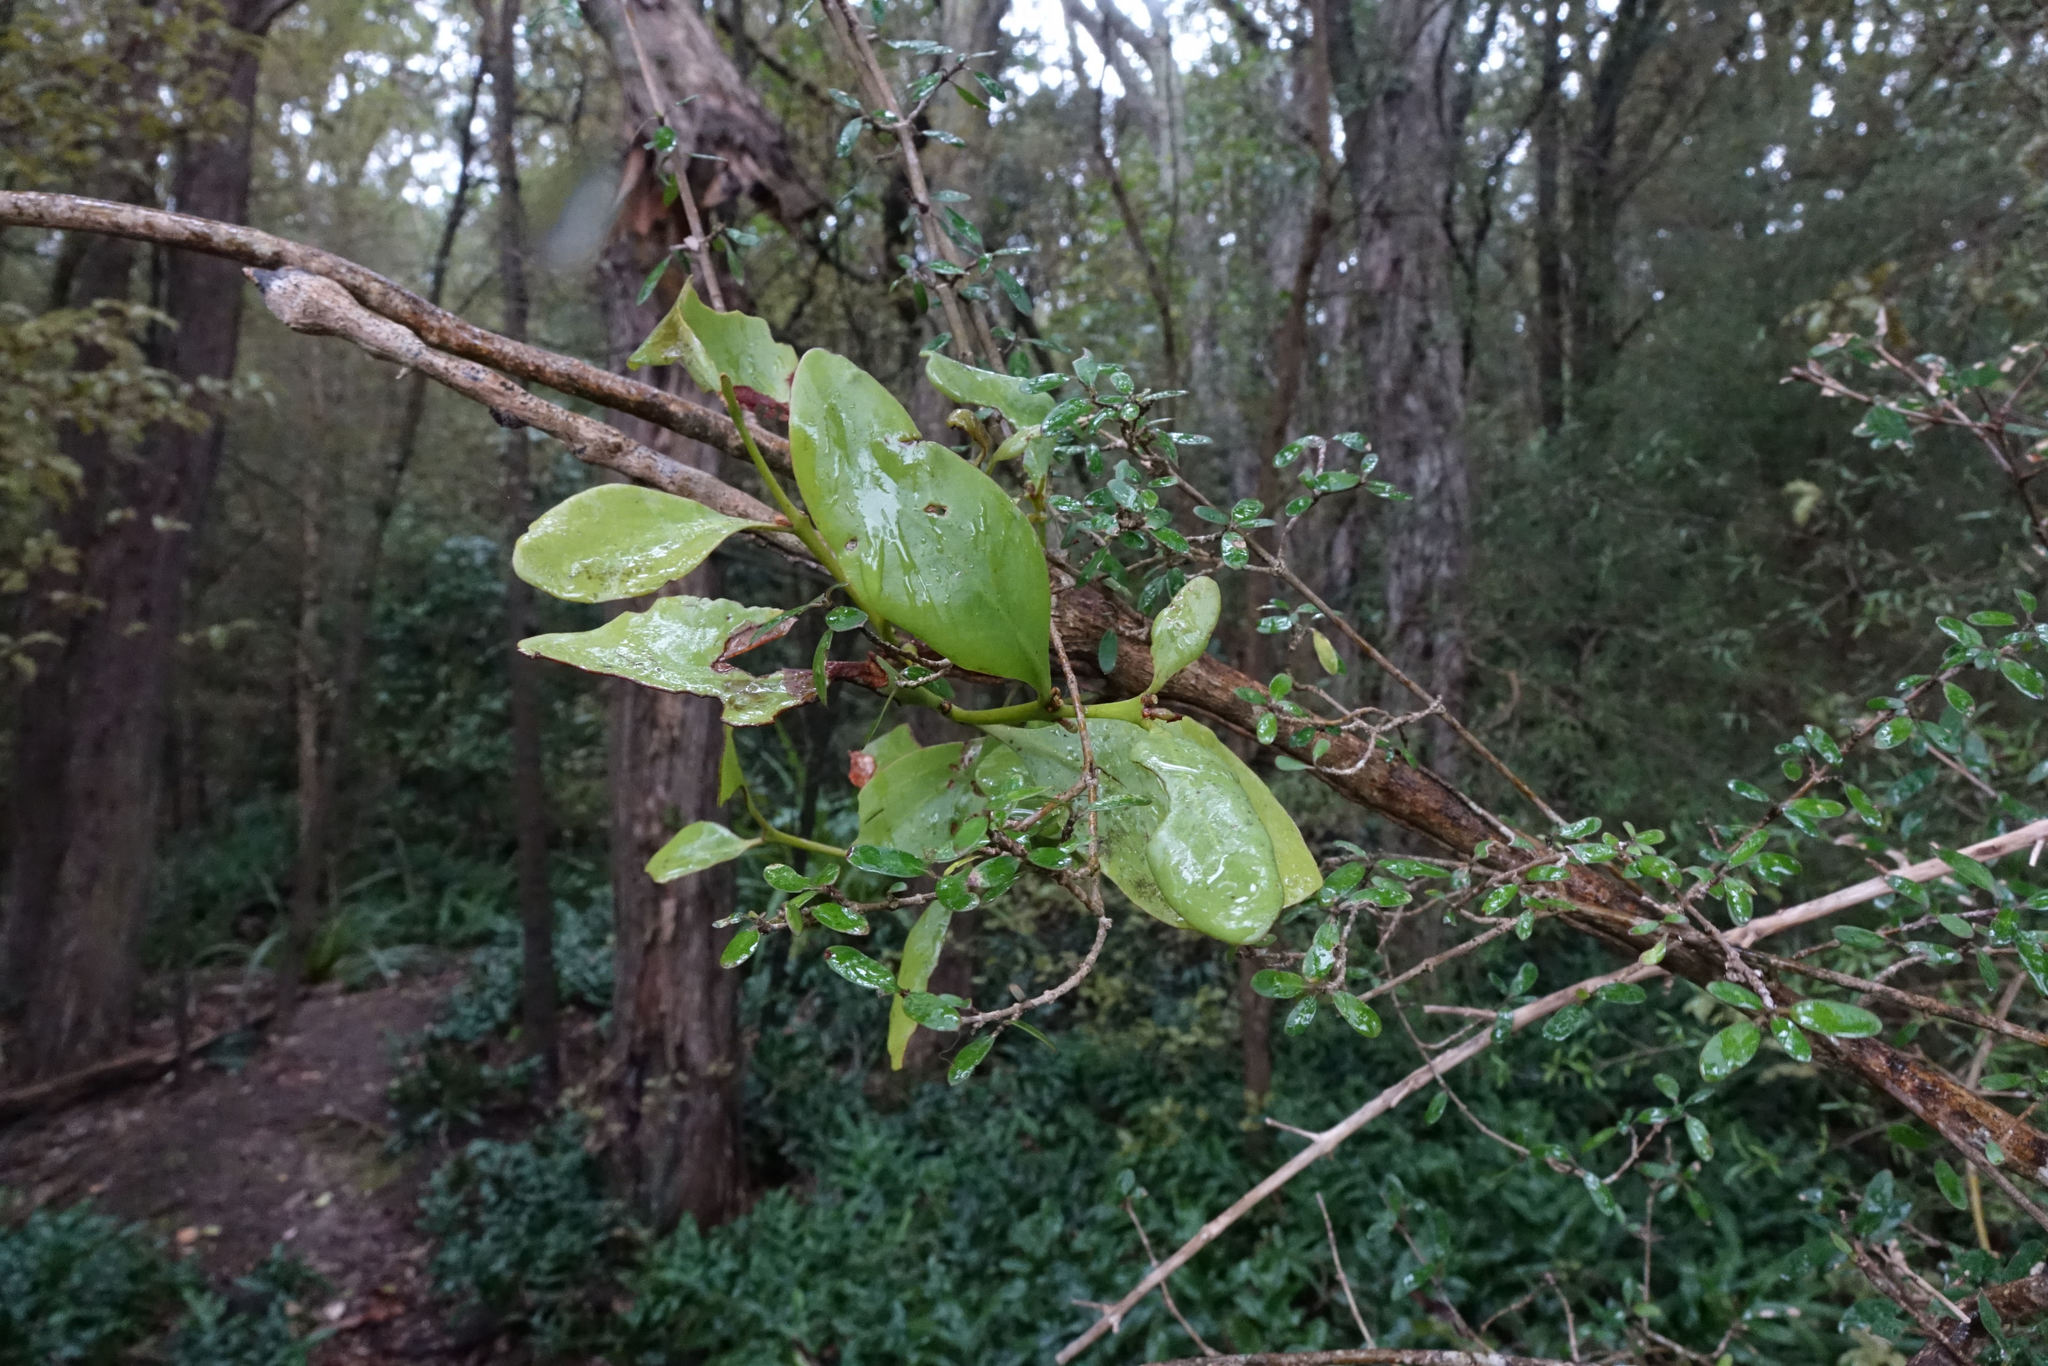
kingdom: Plantae
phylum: Tracheophyta
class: Magnoliopsida
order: Santalales
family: Loranthaceae
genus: Ileostylus
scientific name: Ileostylus micranthus
